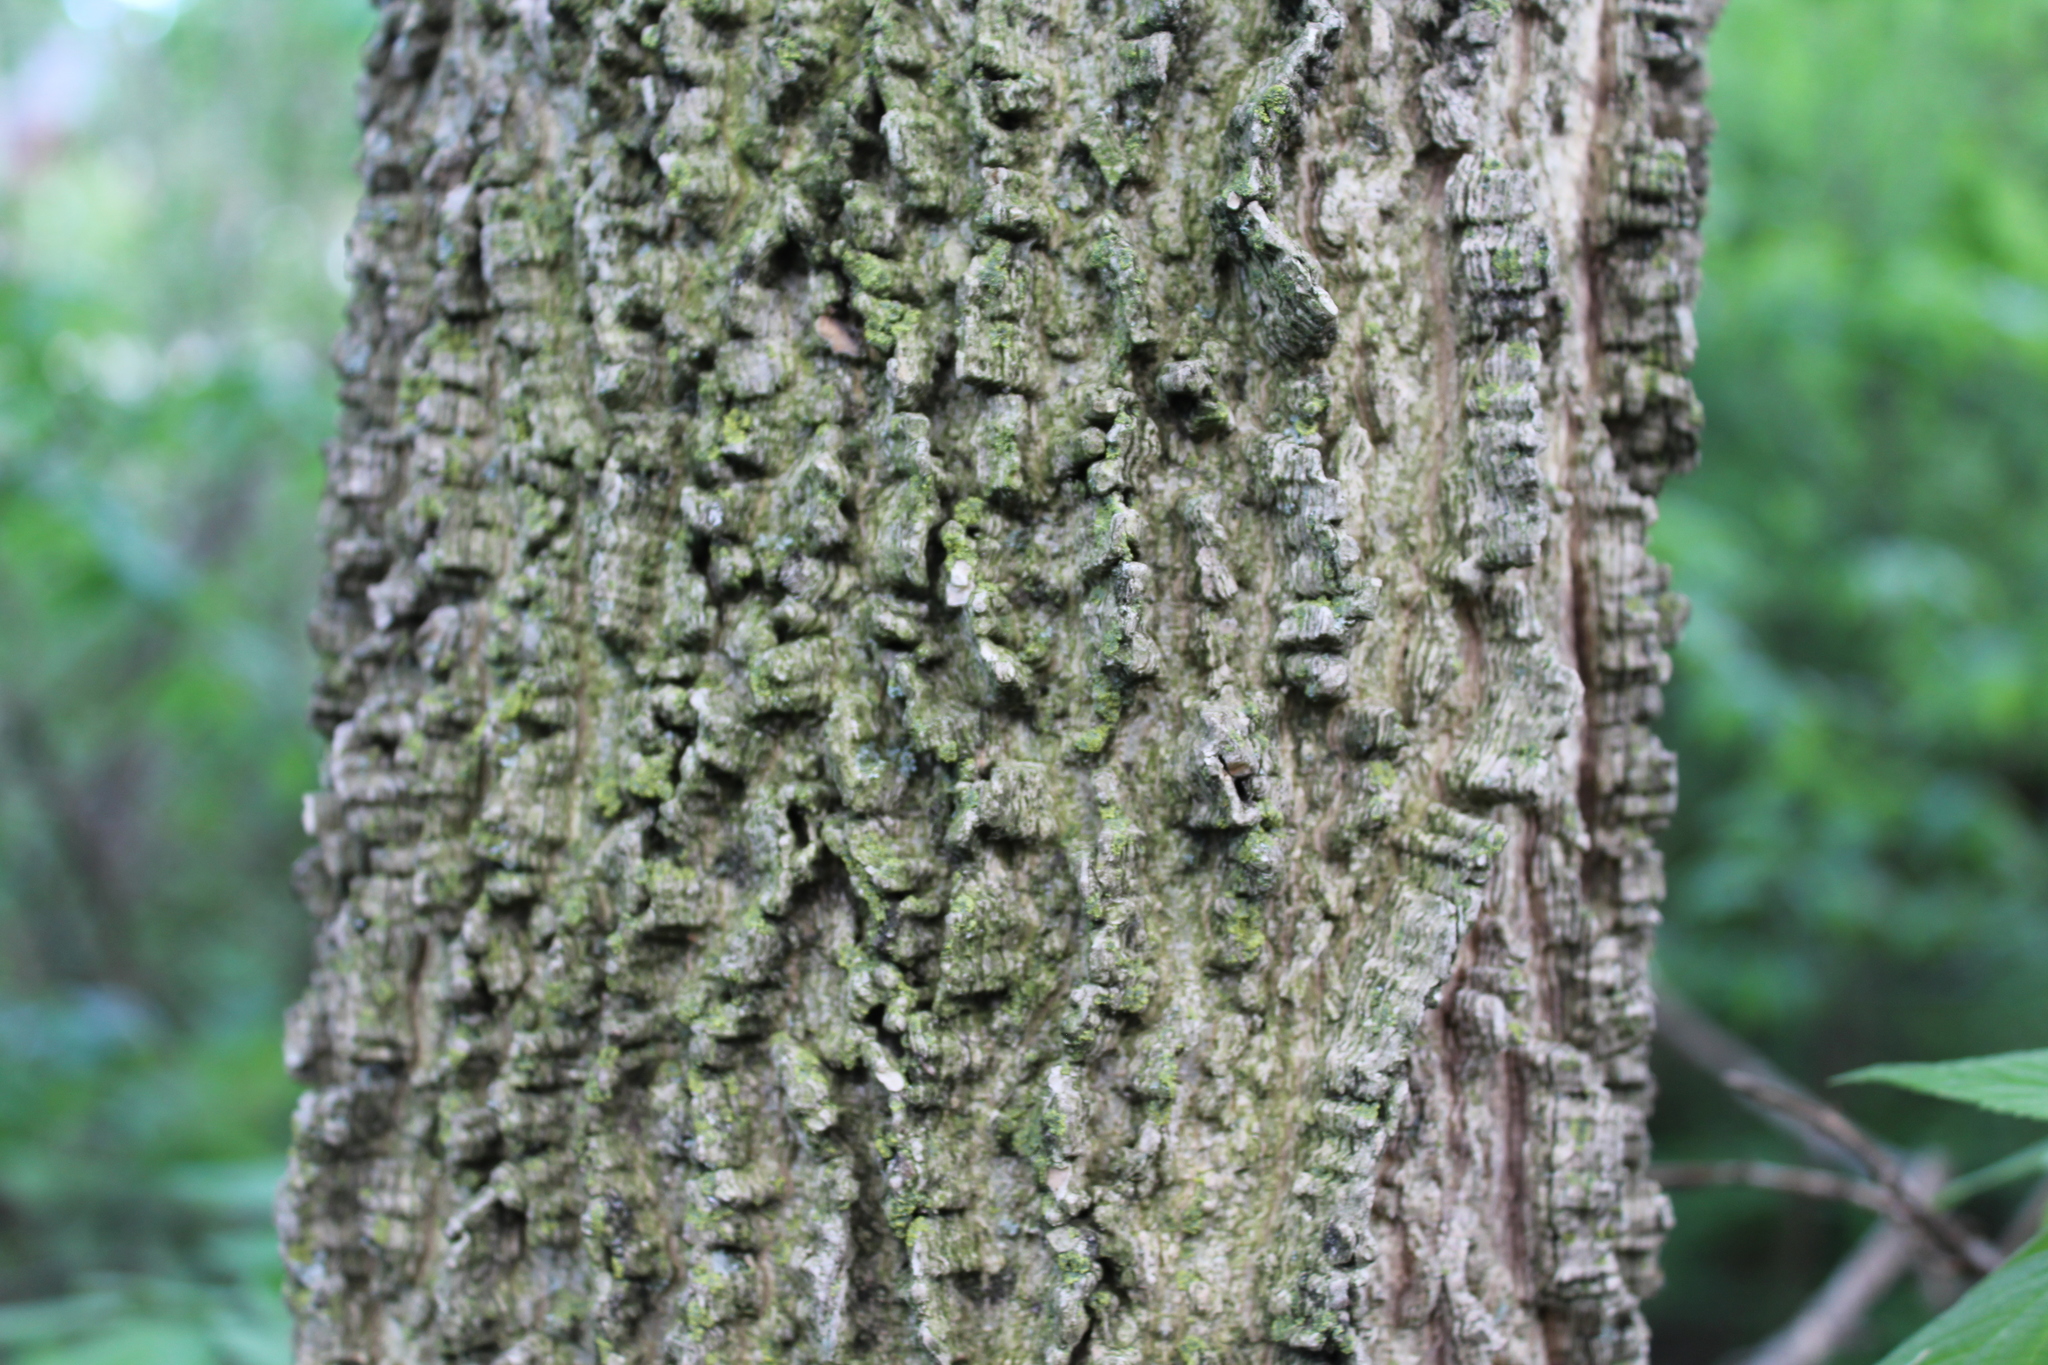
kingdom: Plantae
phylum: Tracheophyta
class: Magnoliopsida
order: Rosales
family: Cannabaceae
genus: Celtis
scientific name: Celtis occidentalis
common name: Common hackberry
